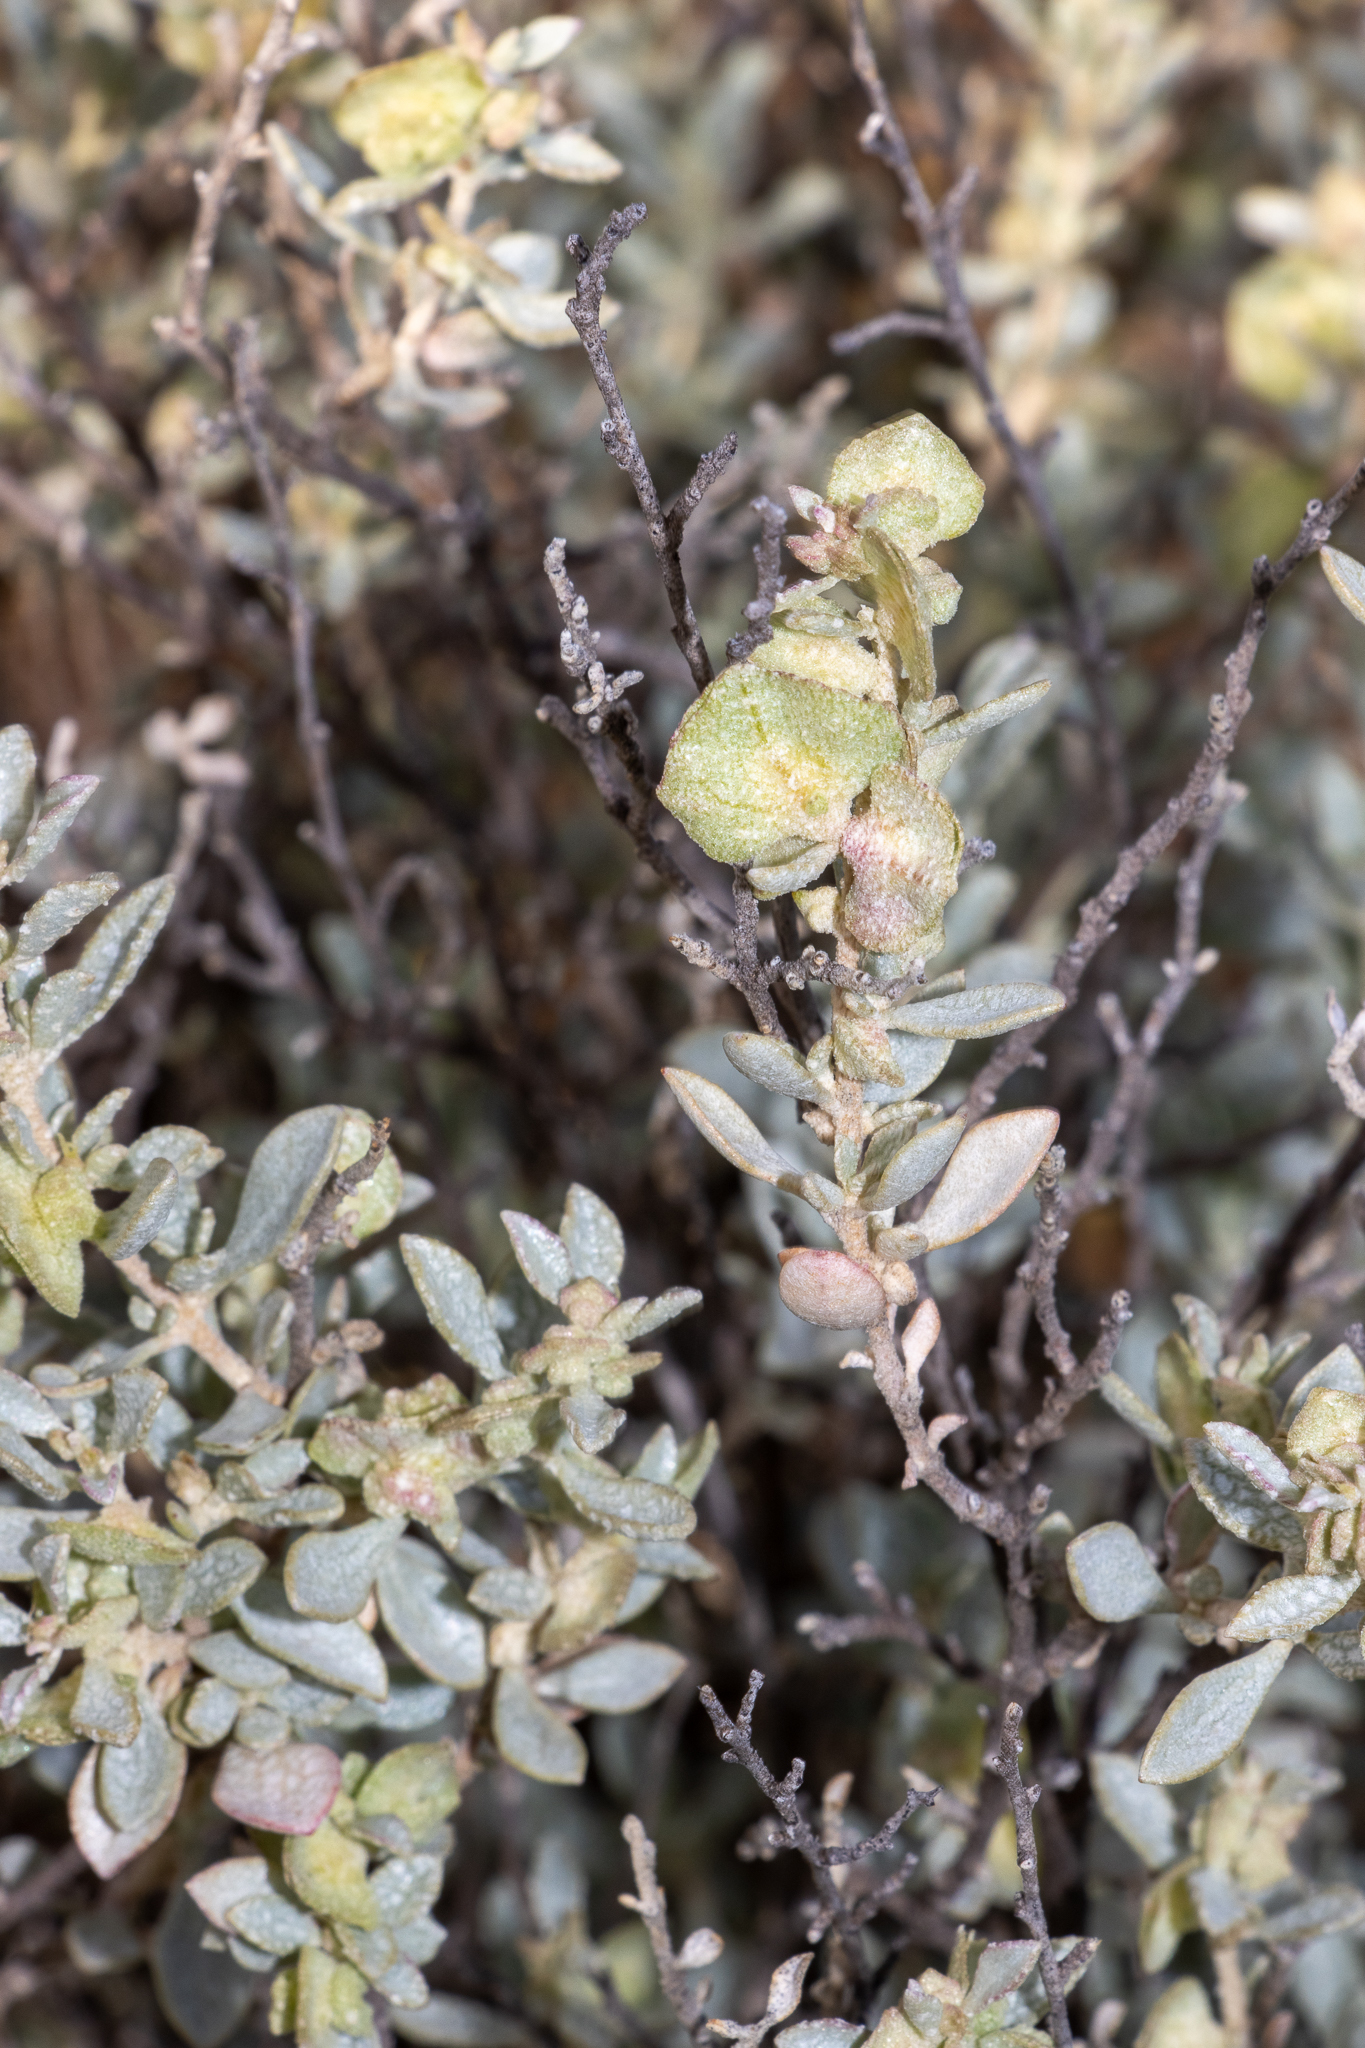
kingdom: Plantae
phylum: Tracheophyta
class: Magnoliopsida
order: Caryophyllales
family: Amaranthaceae
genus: Atriplex
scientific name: Atriplex vesicaria
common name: Aboriginal saltbush
